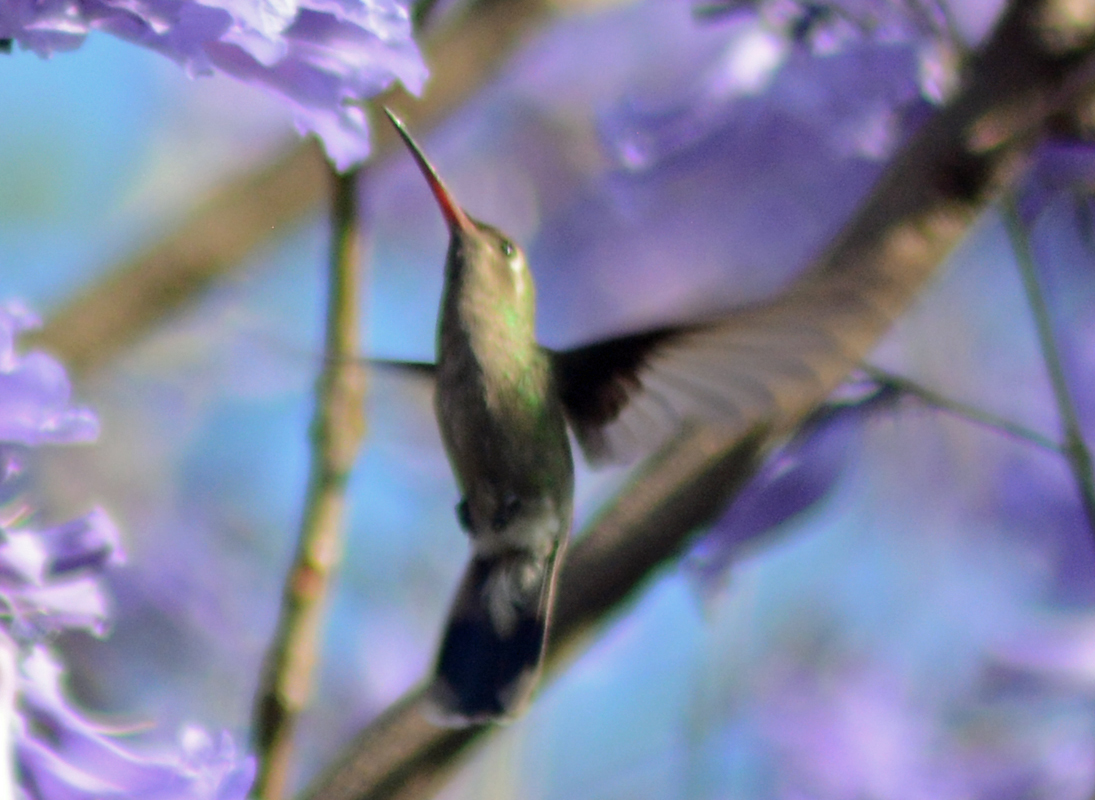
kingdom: Animalia
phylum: Chordata
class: Aves
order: Apodiformes
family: Trochilidae
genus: Cynanthus
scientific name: Cynanthus latirostris
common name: Broad-billed hummingbird
